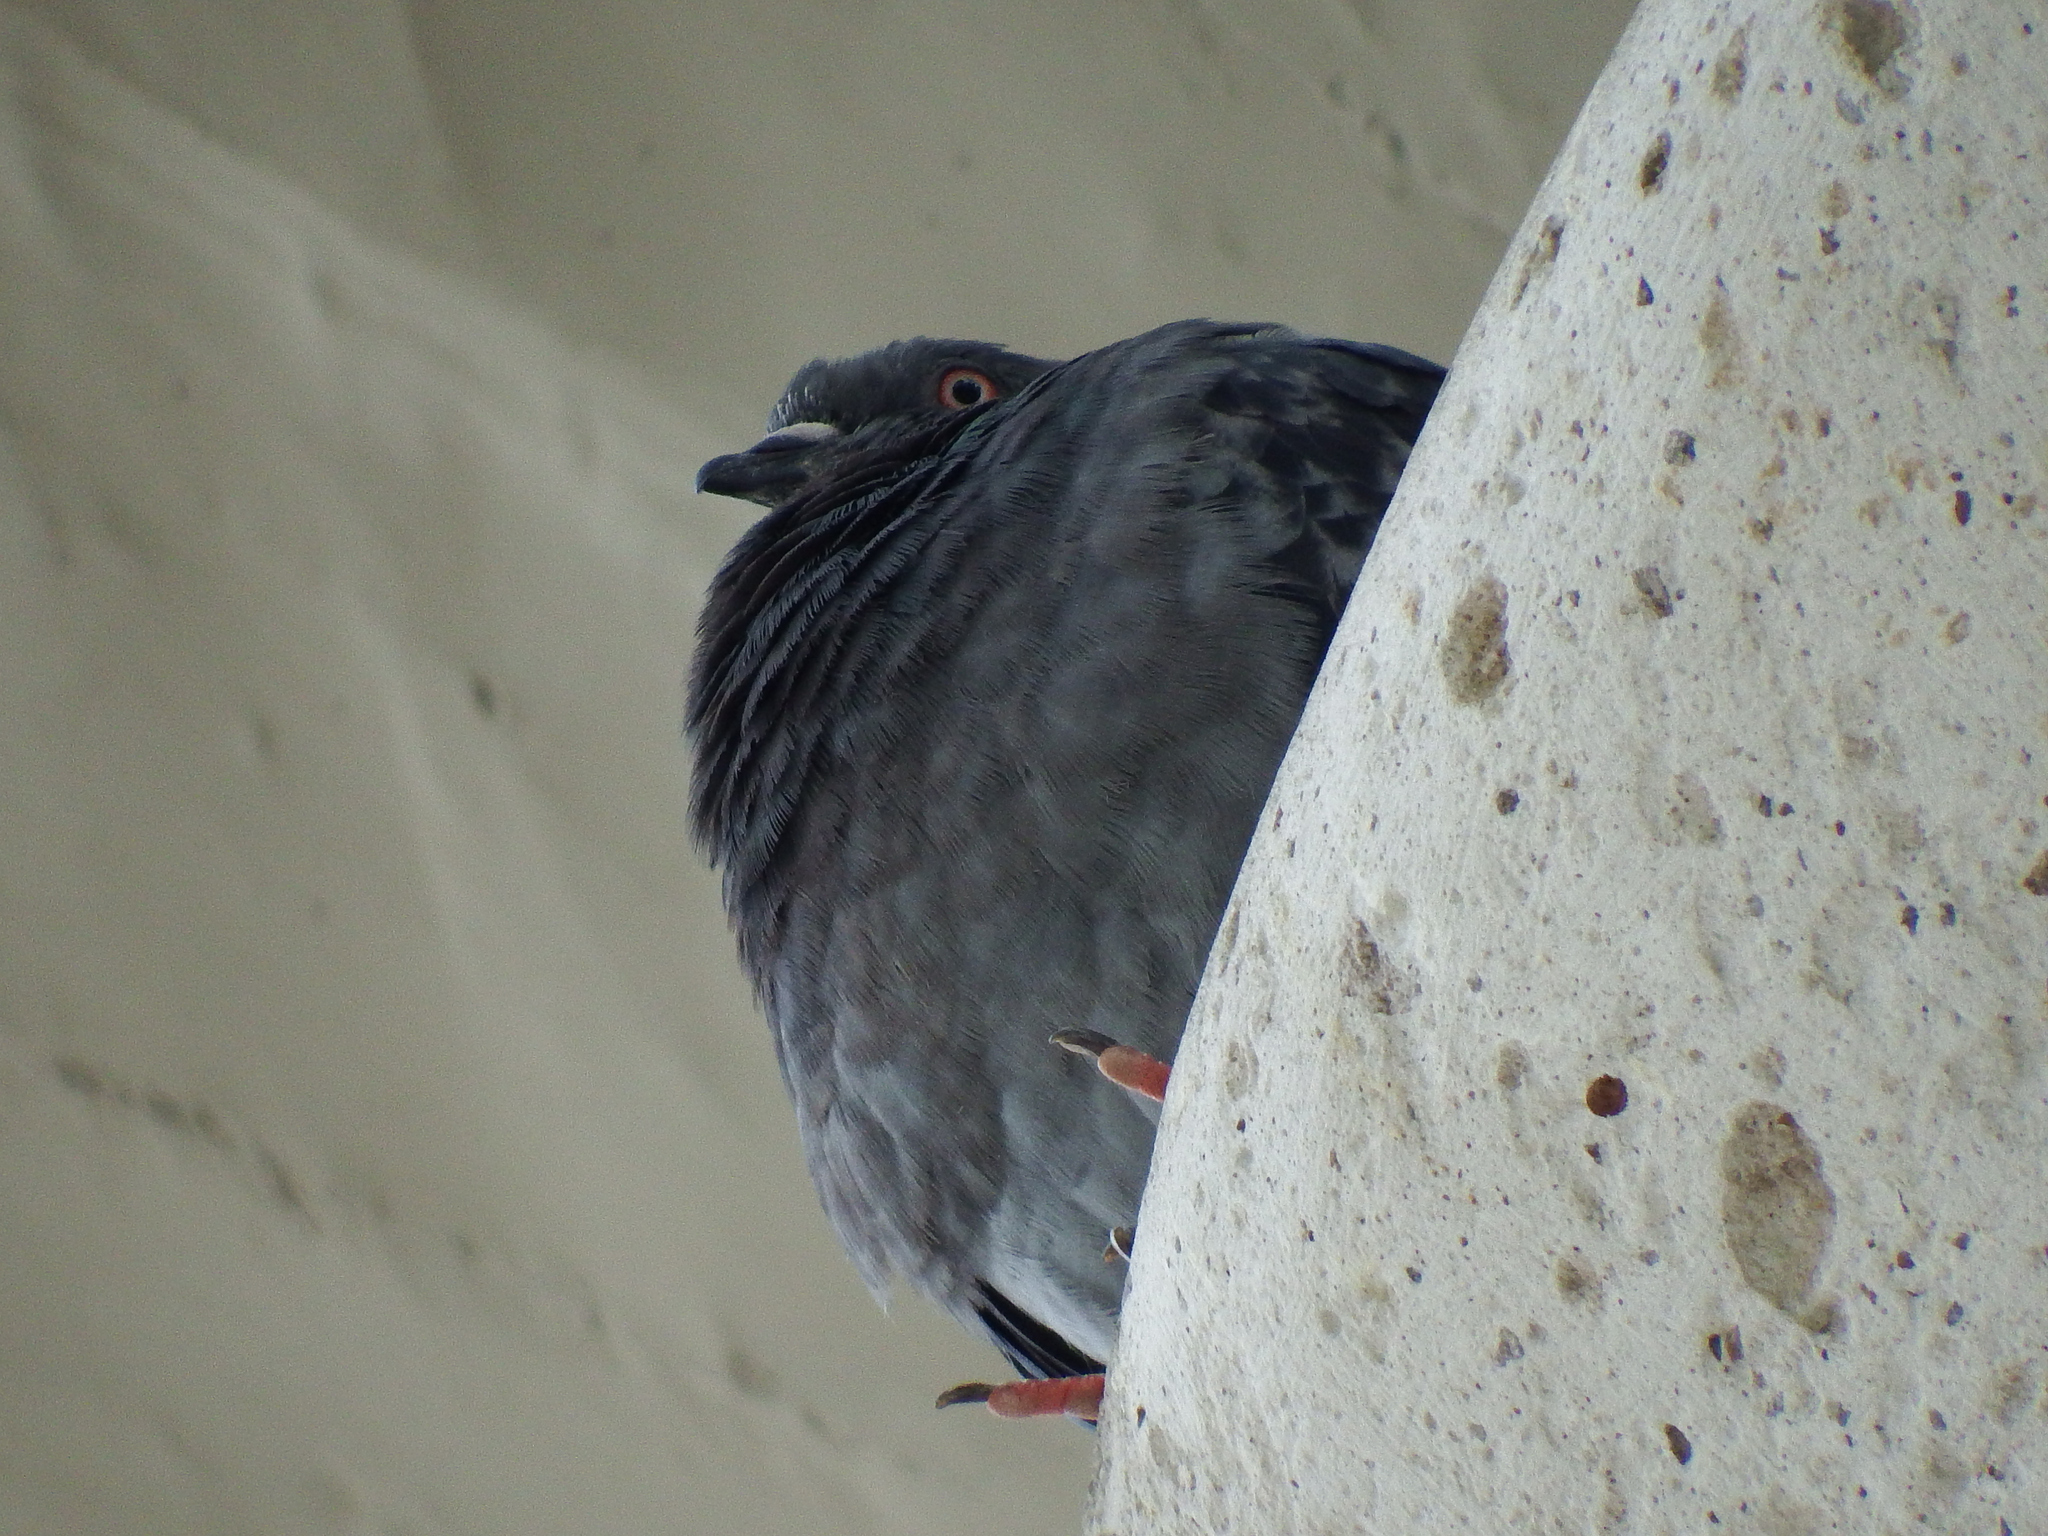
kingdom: Animalia
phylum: Chordata
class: Aves
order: Columbiformes
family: Columbidae
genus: Columba
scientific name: Columba livia
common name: Rock pigeon
